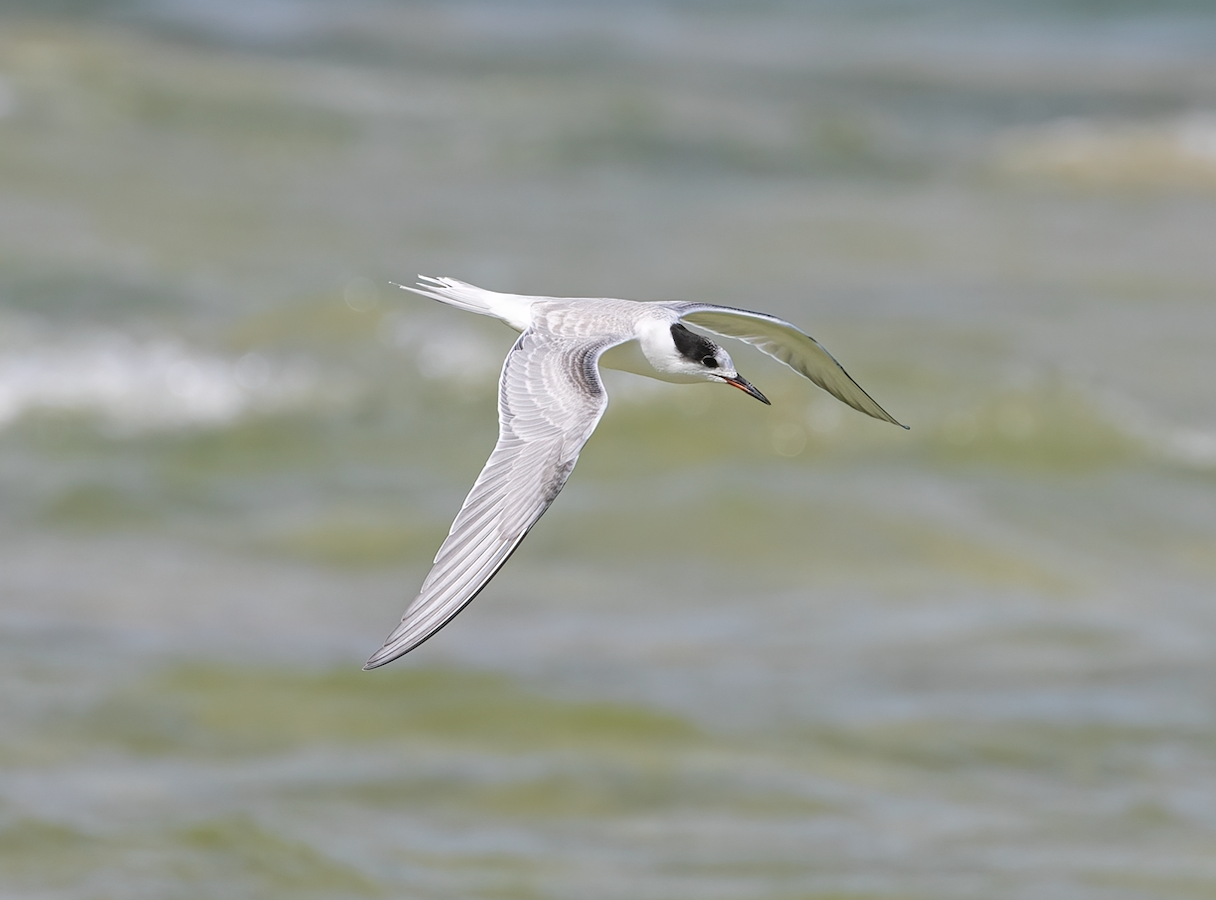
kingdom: Animalia
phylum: Chordata
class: Aves
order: Charadriiformes
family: Laridae
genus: Sterna
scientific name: Sterna hirundo
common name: Common tern
